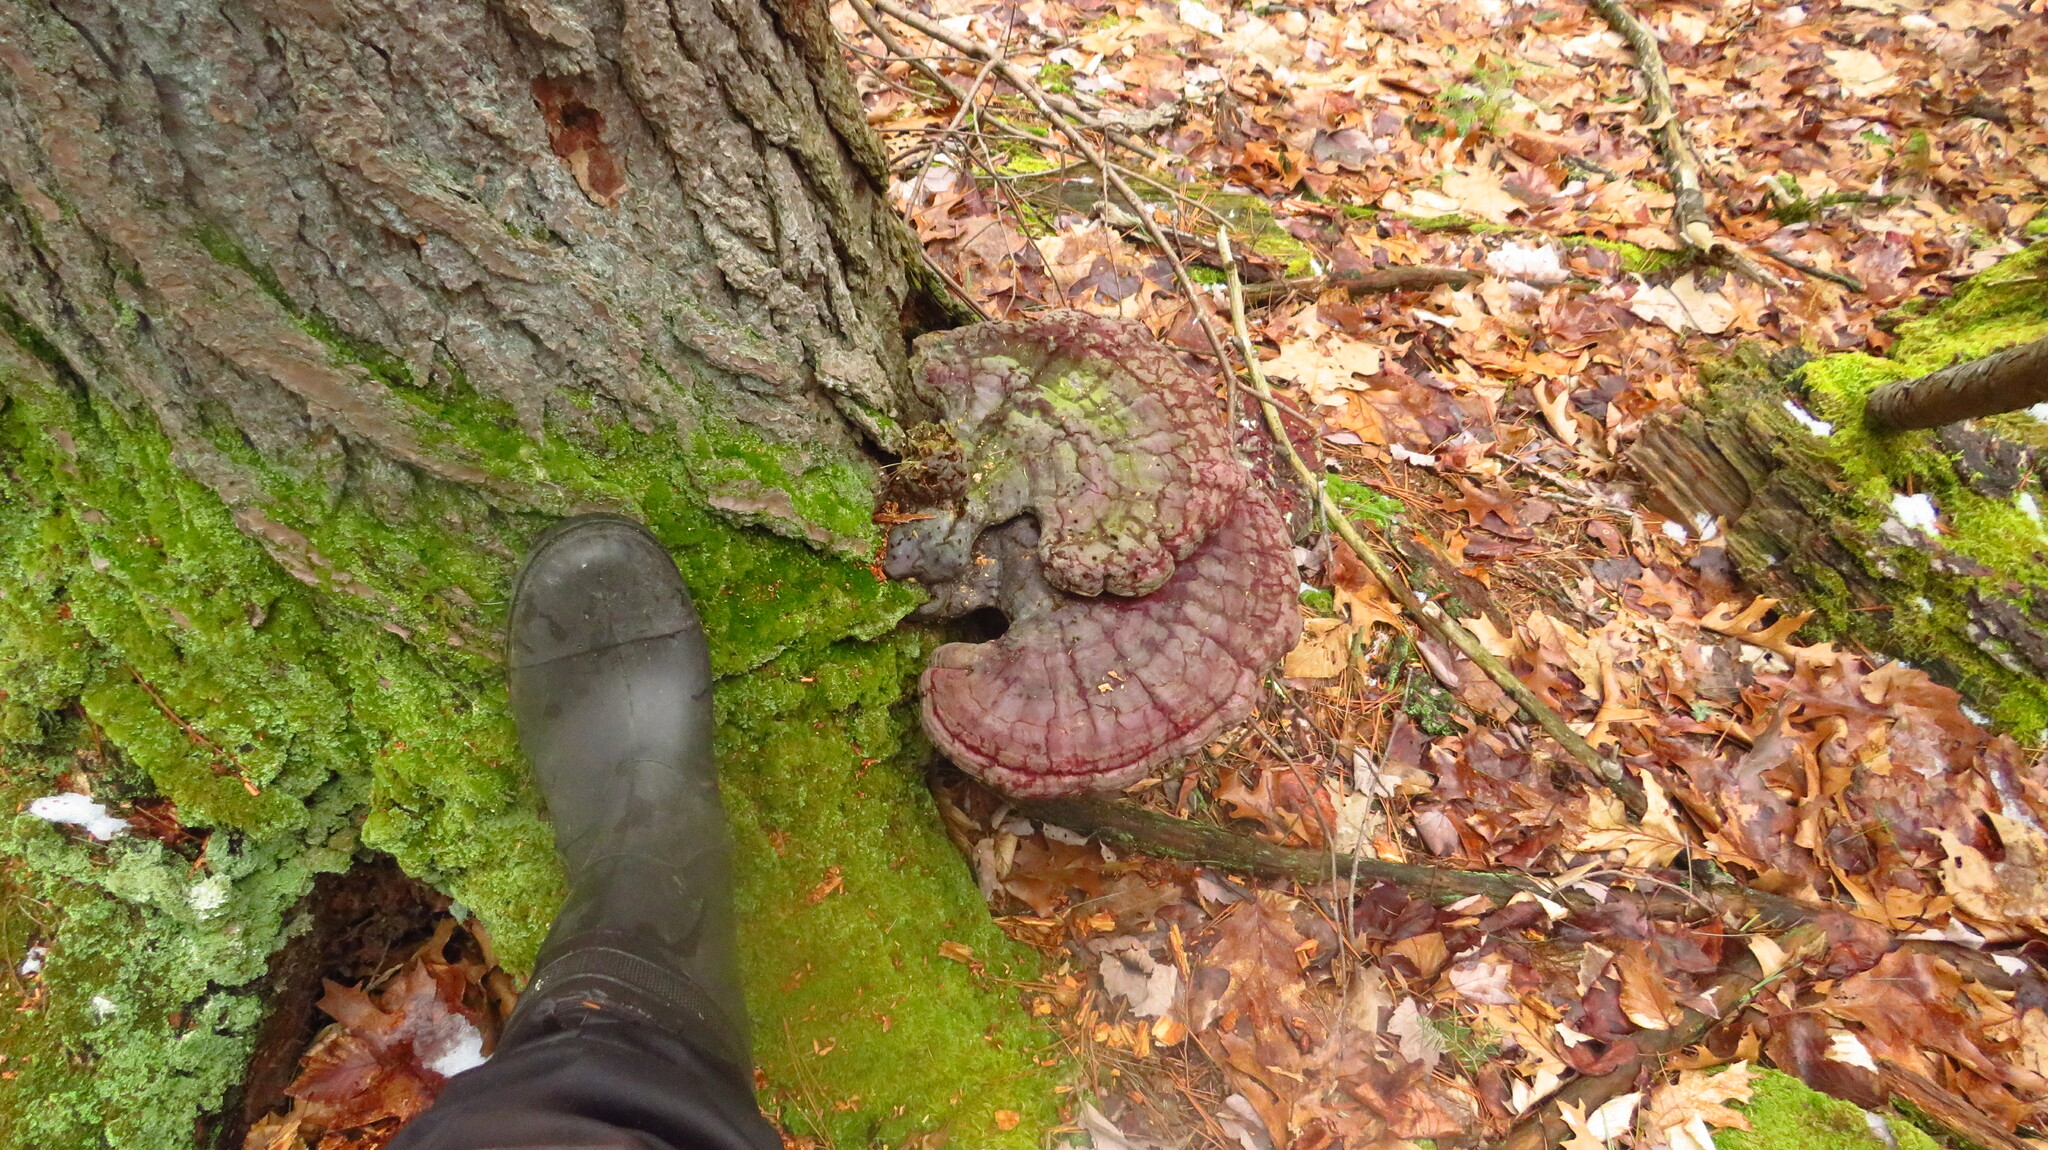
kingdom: Fungi
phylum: Basidiomycota
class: Agaricomycetes
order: Polyporales
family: Polyporaceae
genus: Ganoderma
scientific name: Ganoderma tsugae
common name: Hemlock varnish shelf
